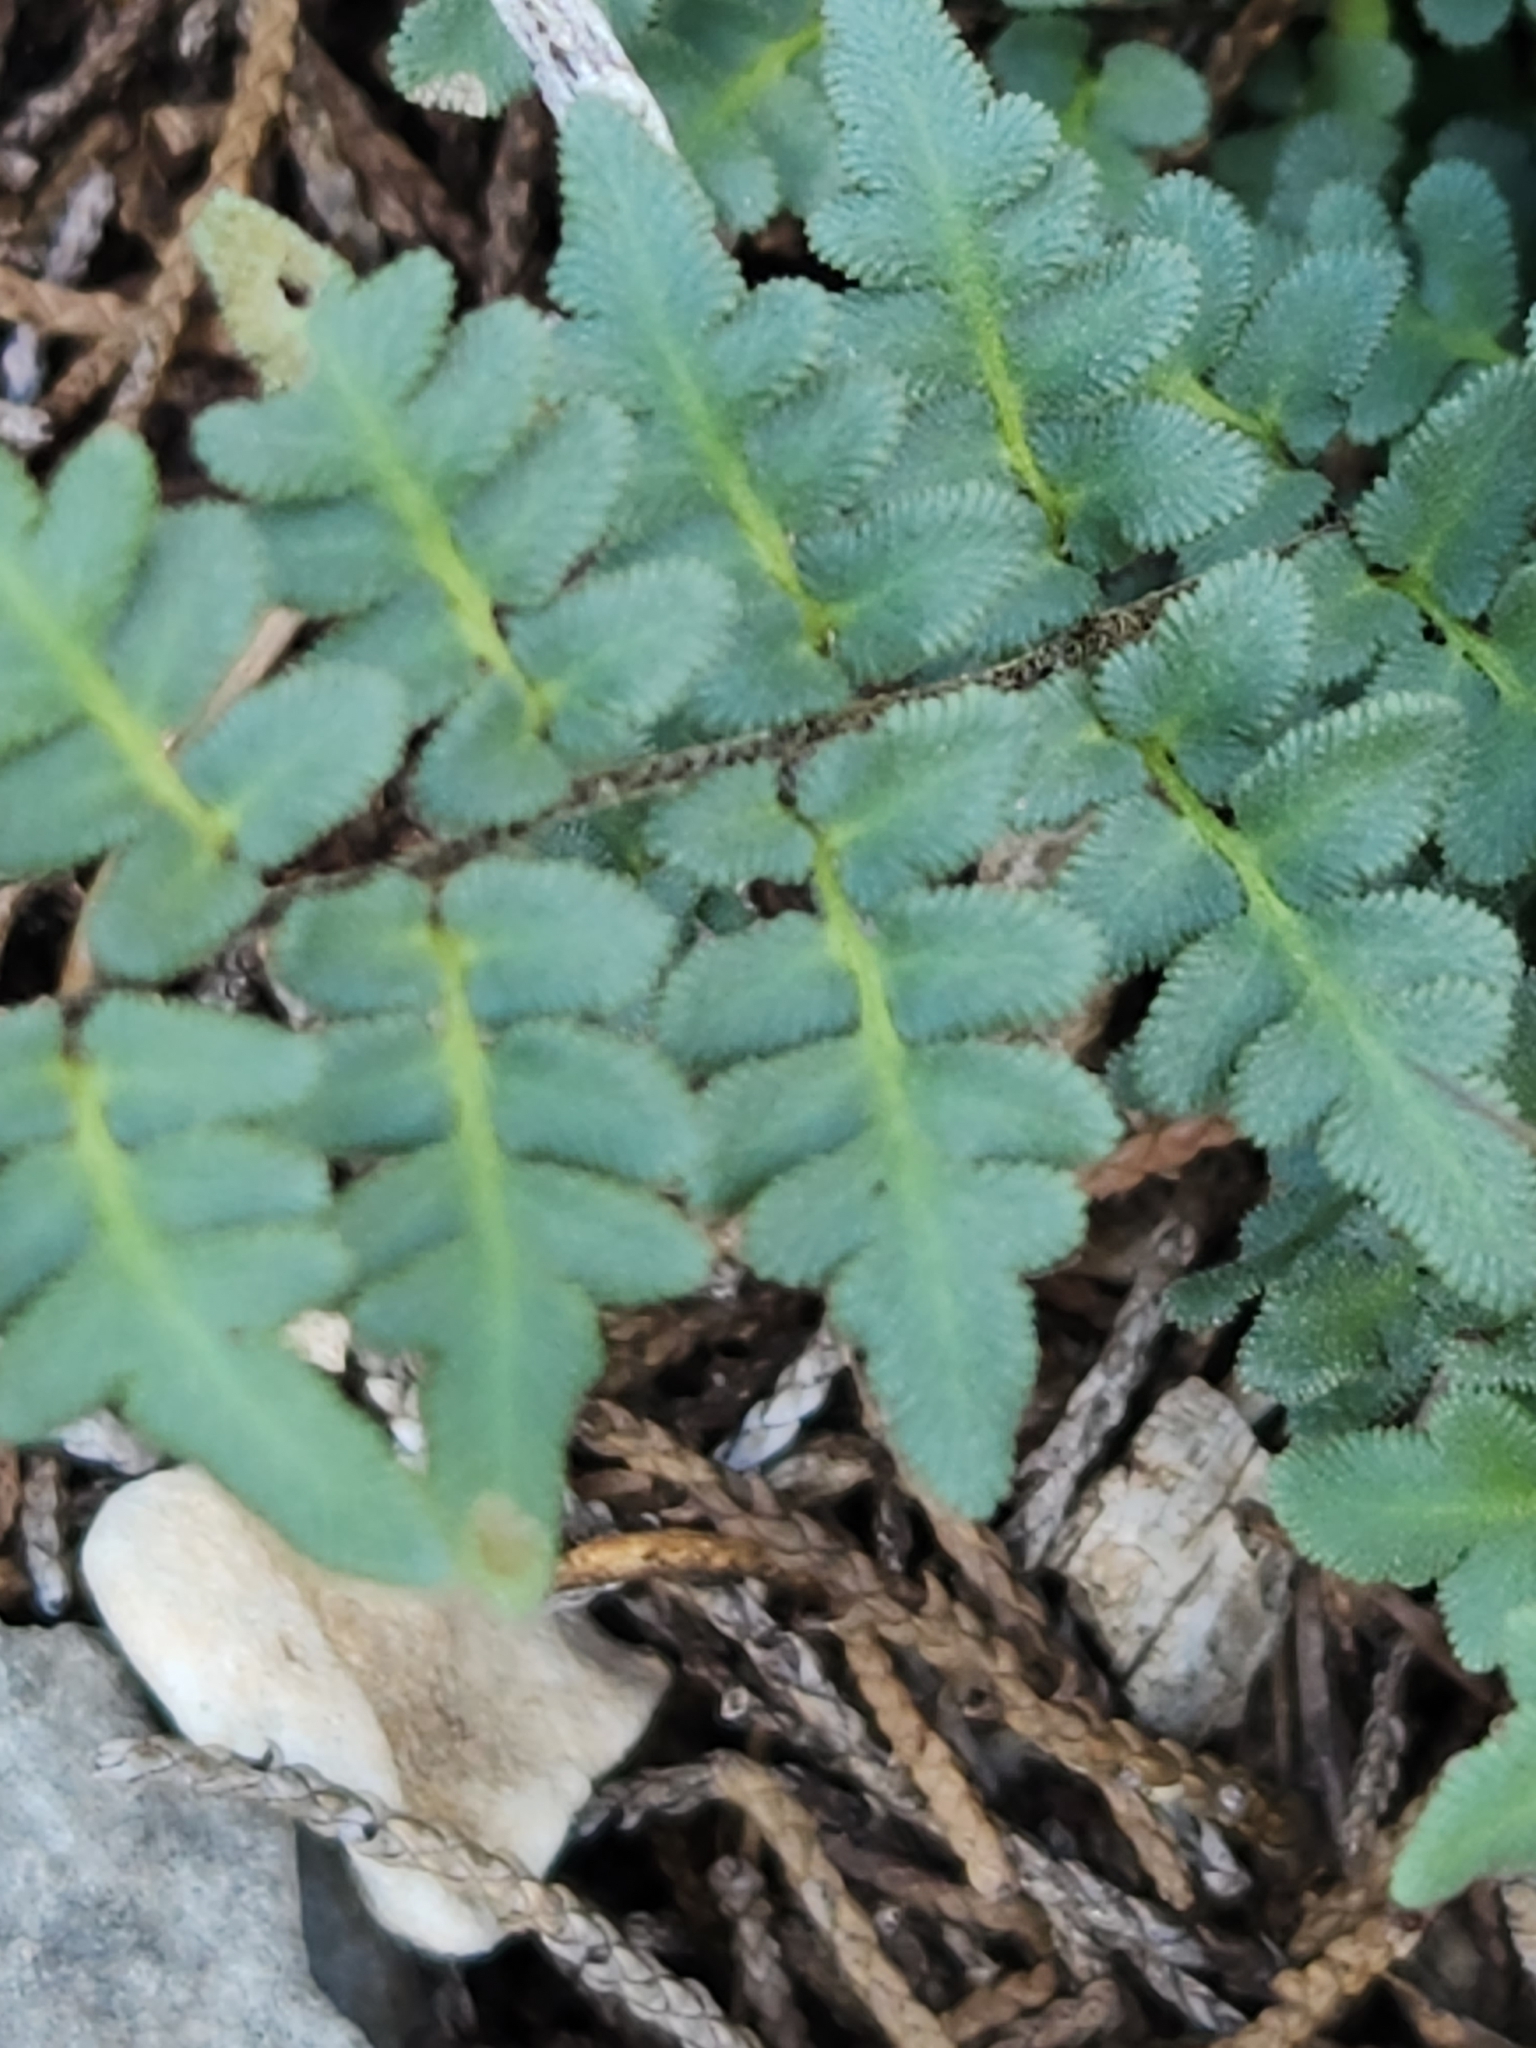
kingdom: Plantae
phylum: Tracheophyta
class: Polypodiopsida
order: Polypodiales
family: Pteridaceae
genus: Myriopteris
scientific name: Myriopteris scabra
